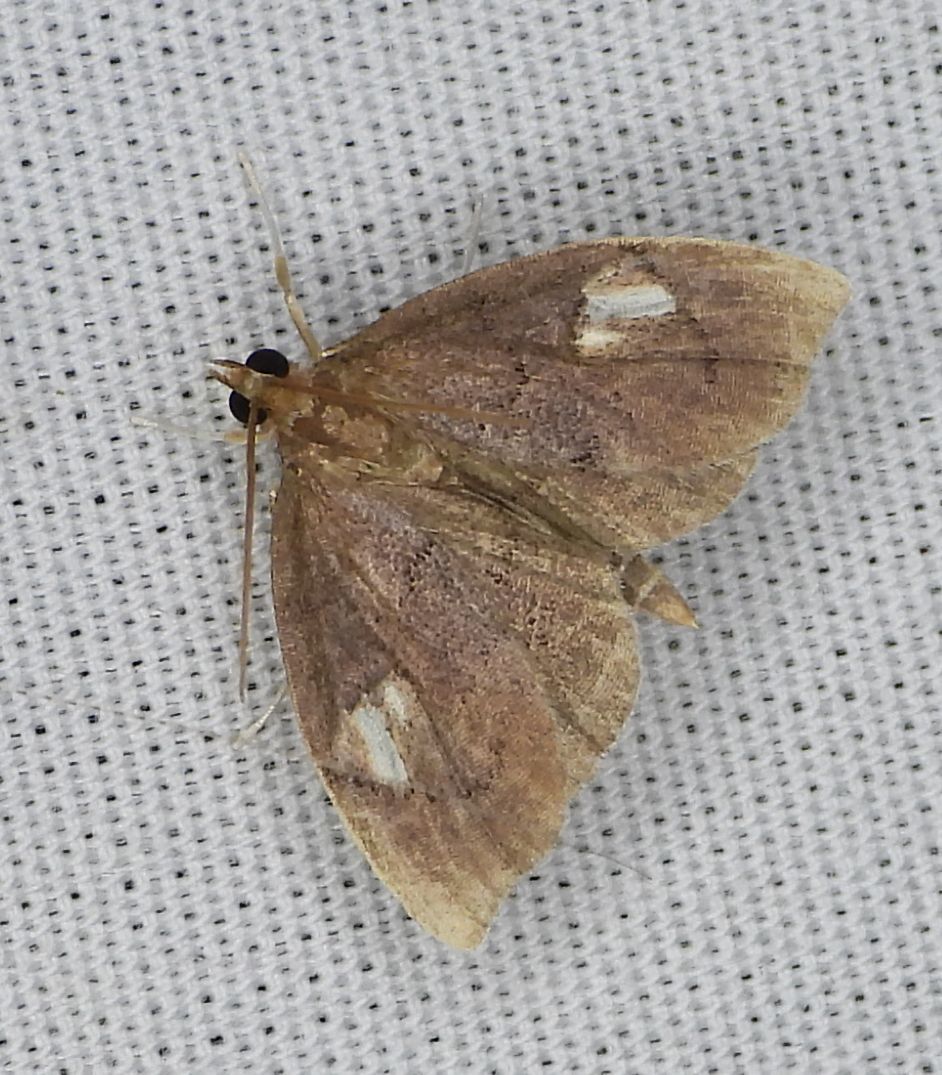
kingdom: Animalia
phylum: Arthropoda
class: Insecta
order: Lepidoptera
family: Crambidae
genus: Perispasta
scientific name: Perispasta caeculalis
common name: Titian peale's moth
